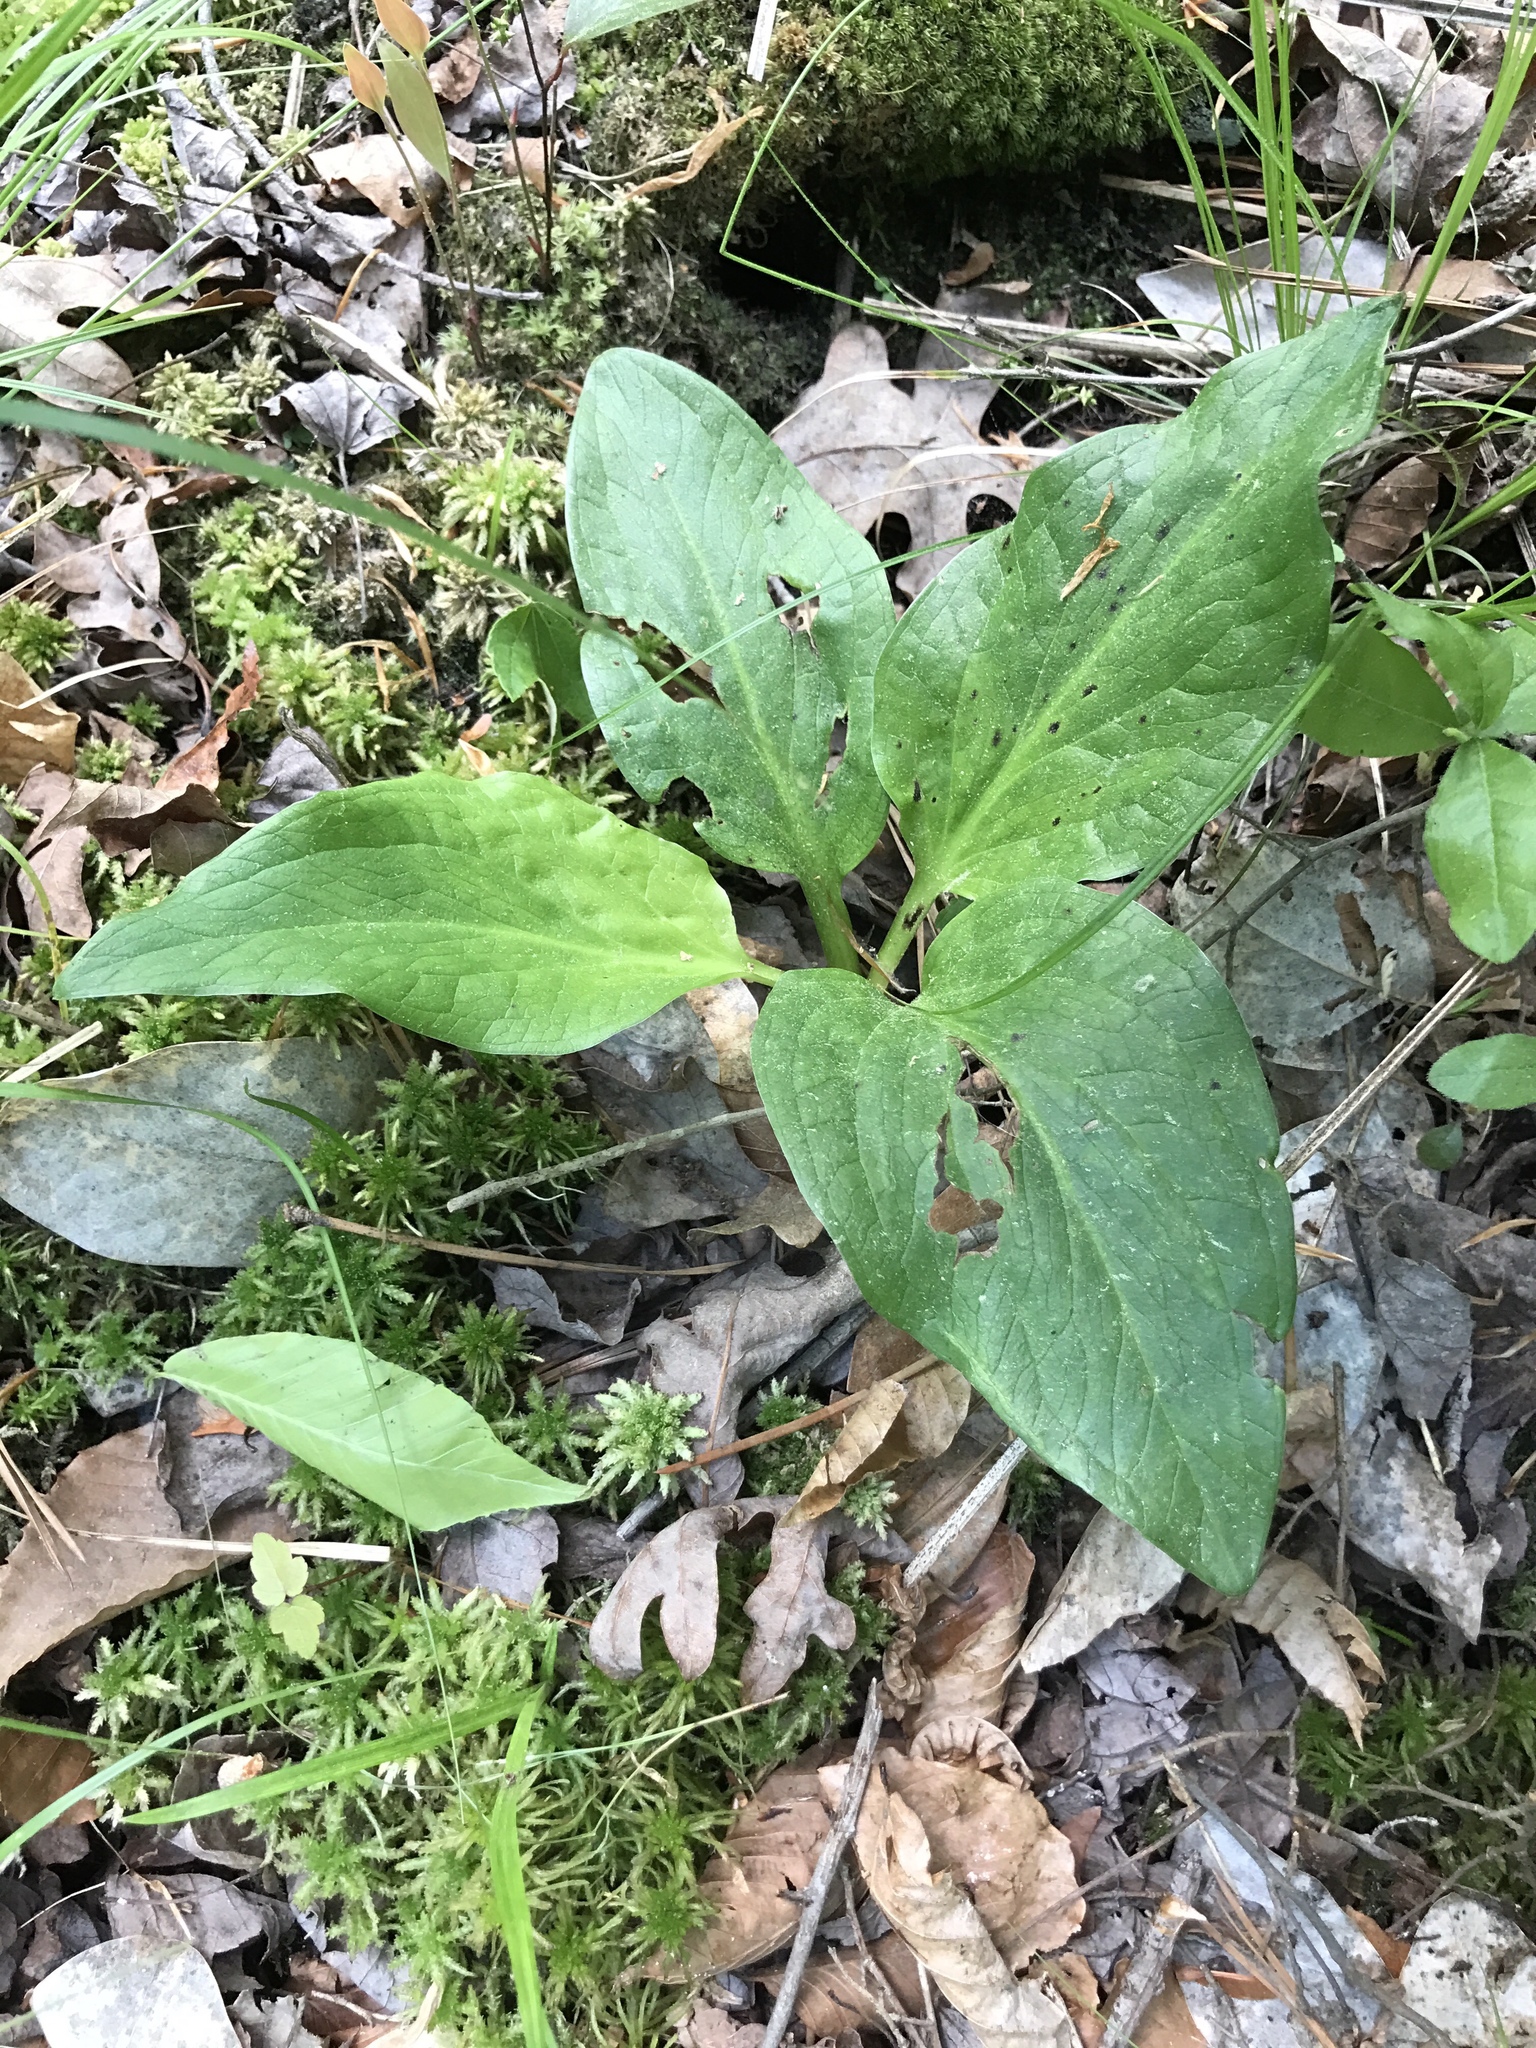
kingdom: Plantae
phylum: Tracheophyta
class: Liliopsida
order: Alismatales
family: Araceae
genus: Symplocarpus
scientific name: Symplocarpus foetidus
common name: Eastern skunk cabbage
